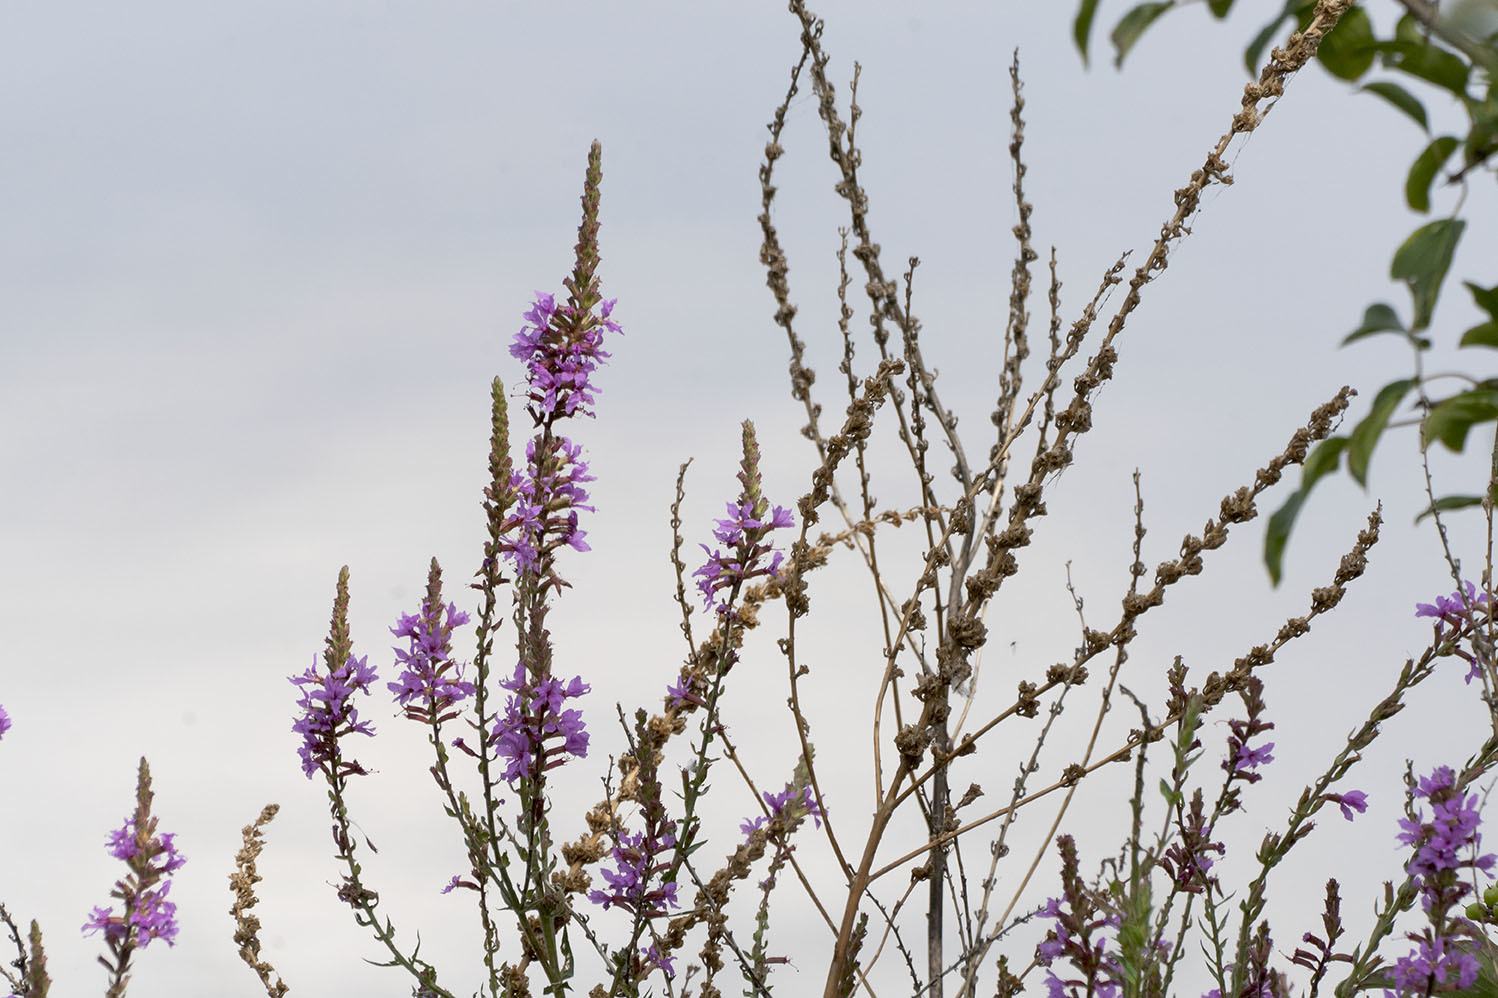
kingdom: Plantae
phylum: Tracheophyta
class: Magnoliopsida
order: Myrtales
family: Lythraceae
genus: Lythrum
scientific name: Lythrum salicaria
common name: Purple loosestrife
